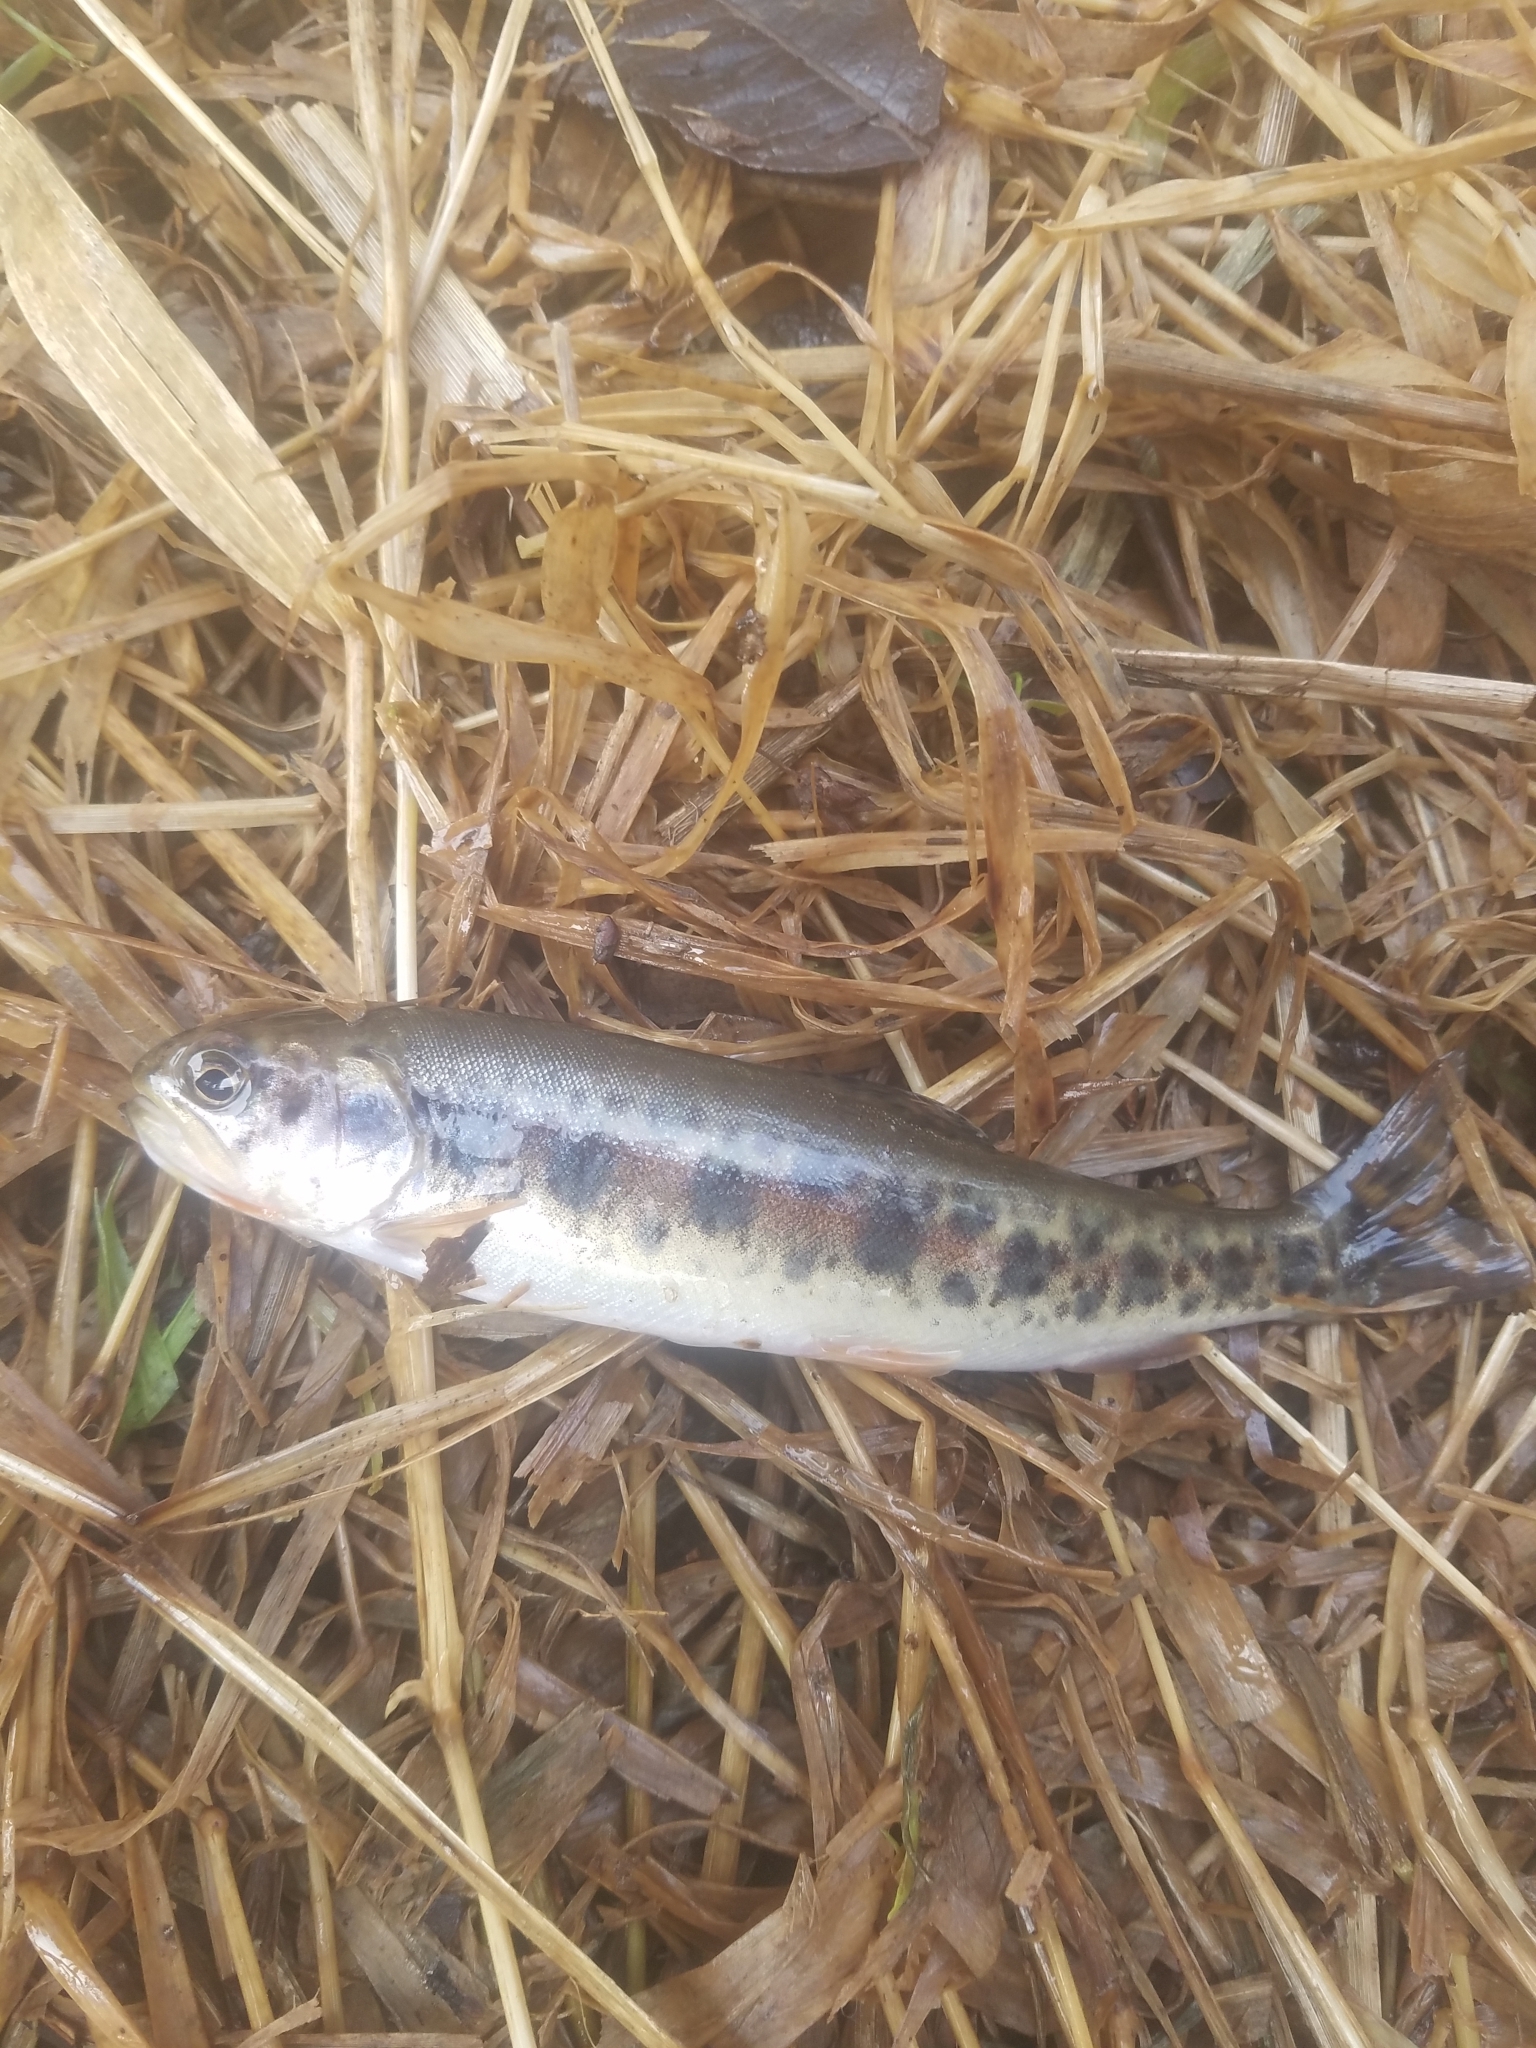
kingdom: Animalia
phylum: Chordata
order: Salmoniformes
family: Salmonidae
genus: Oncorhynchus
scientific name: Oncorhynchus clarkii
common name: Cutthroat trout
